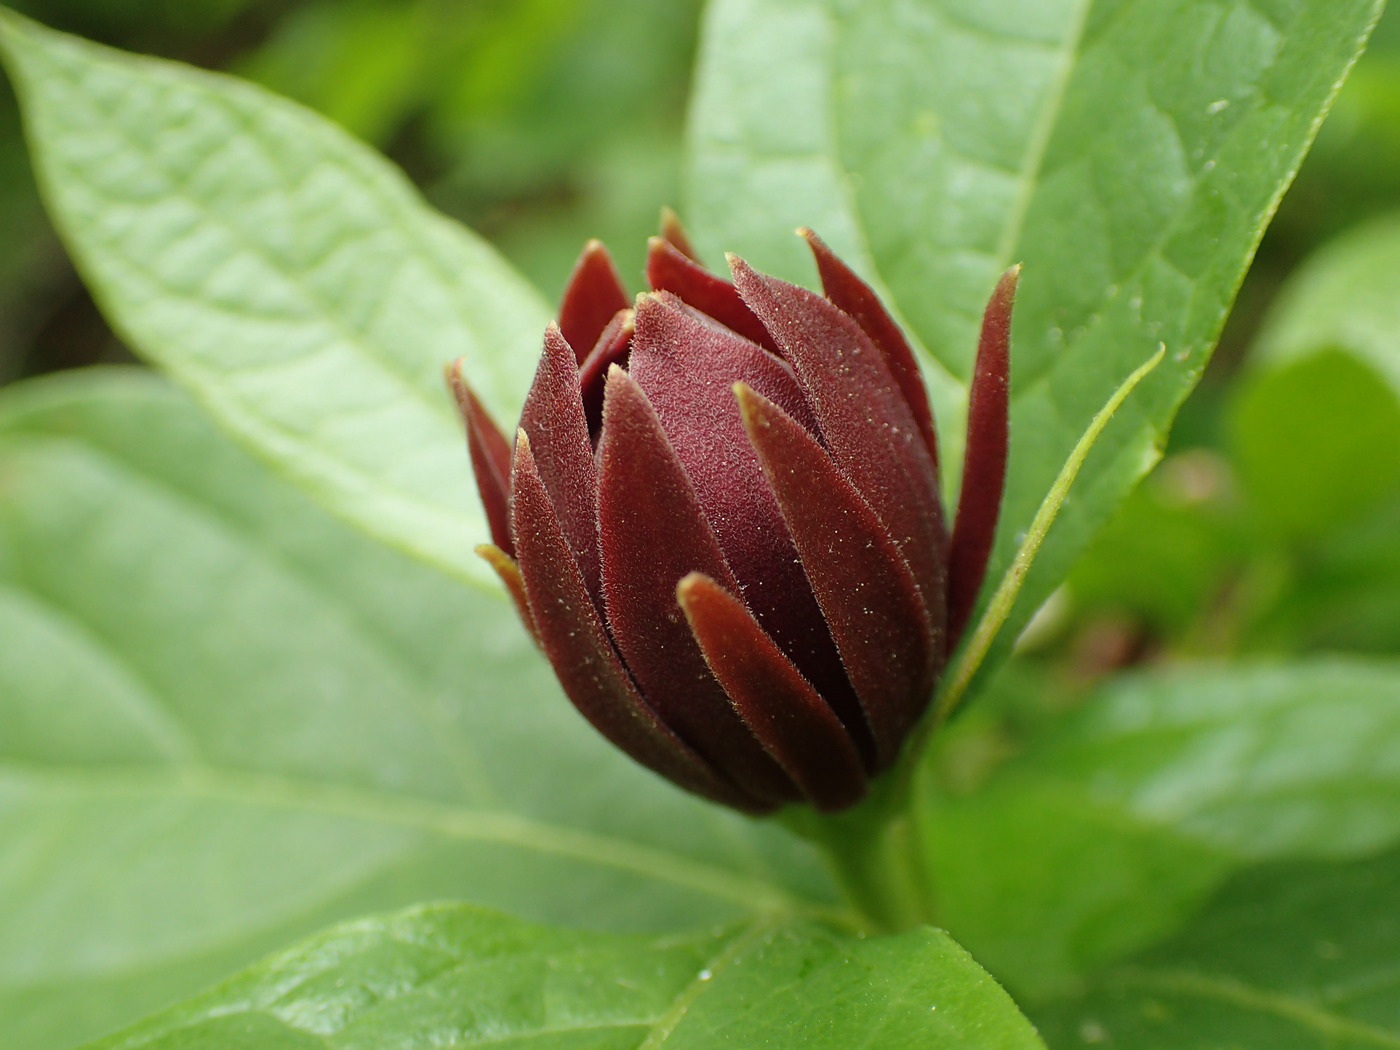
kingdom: Plantae
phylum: Tracheophyta
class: Magnoliopsida
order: Laurales
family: Calycanthaceae
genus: Calycanthus
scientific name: Calycanthus floridus
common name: Carolina-allspice
